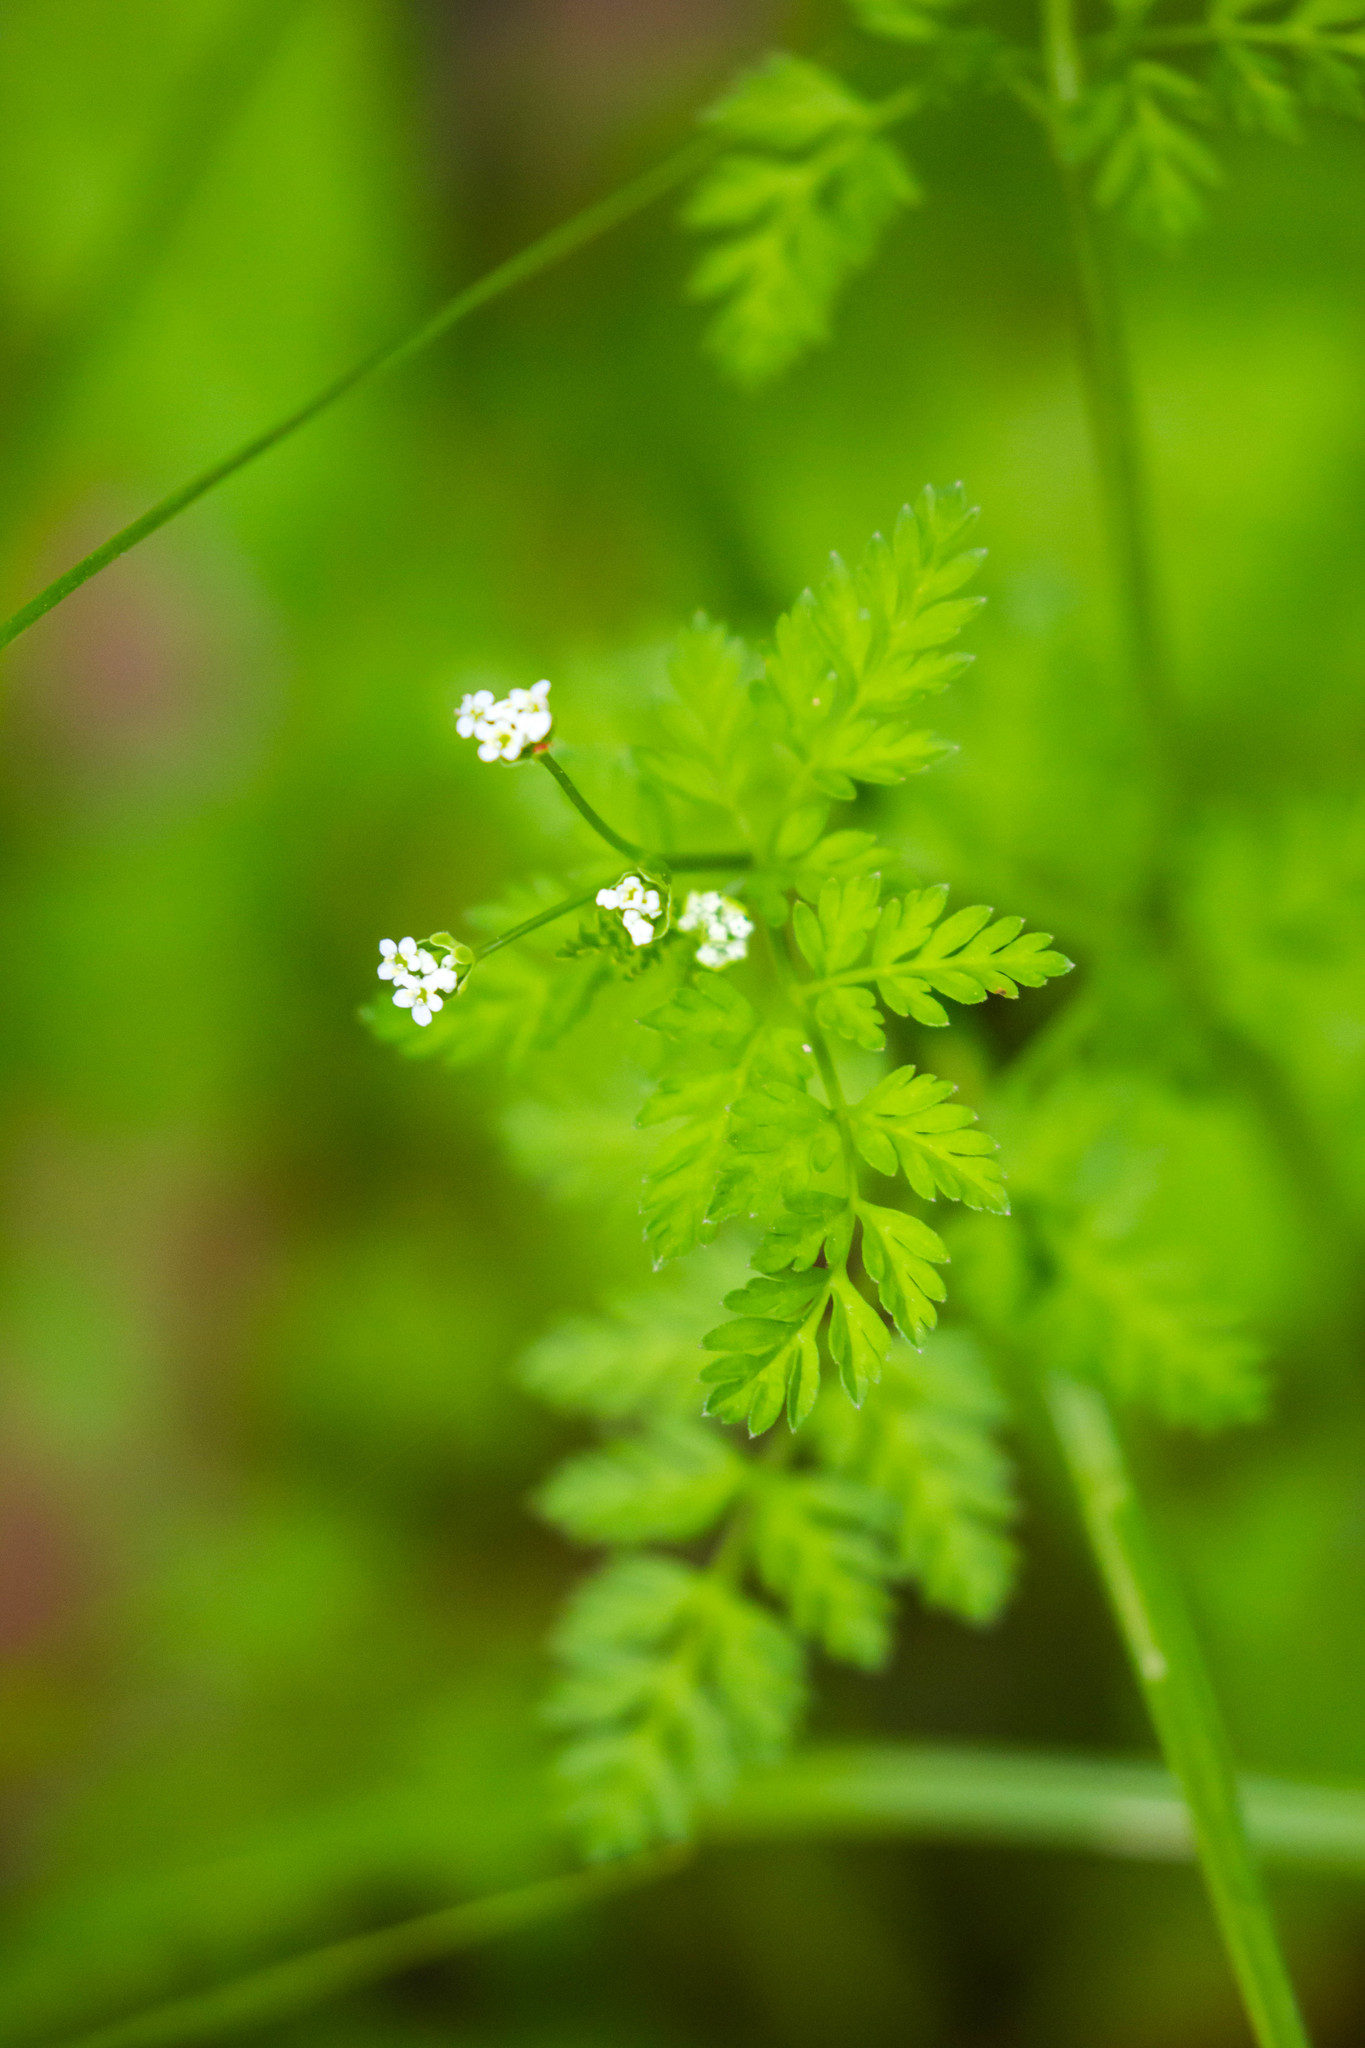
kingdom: Plantae
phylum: Tracheophyta
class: Magnoliopsida
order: Apiales
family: Apiaceae
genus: Chaerophyllum
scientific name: Chaerophyllum tainturieri
